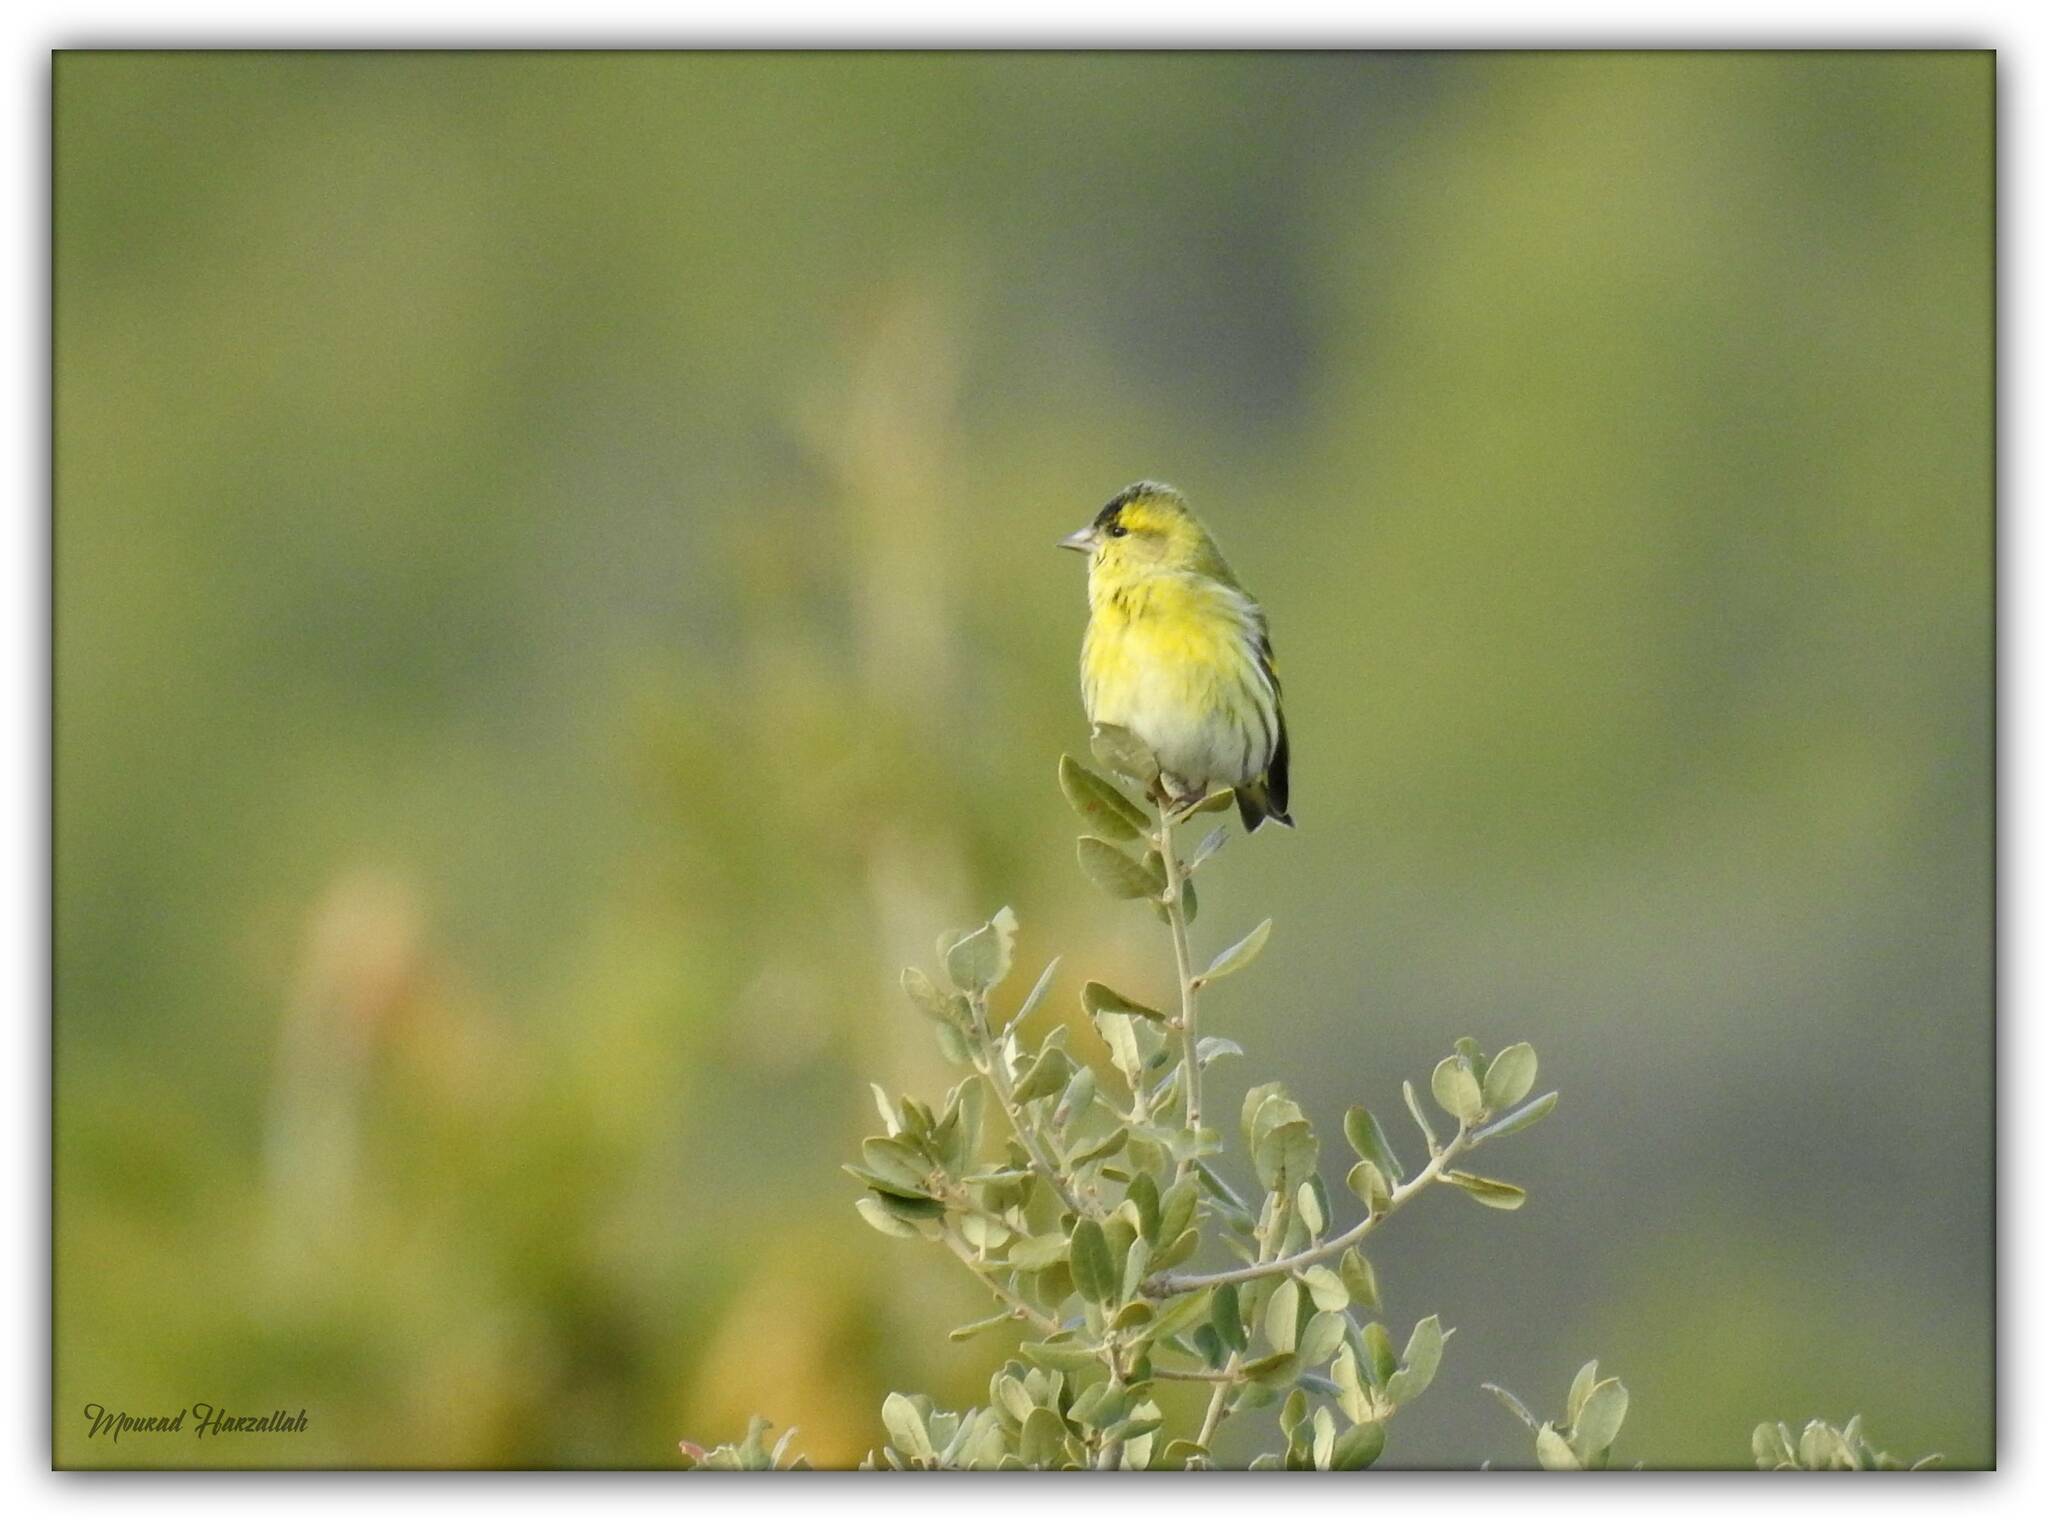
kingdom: Animalia
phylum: Chordata
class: Aves
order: Passeriformes
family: Fringillidae
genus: Spinus
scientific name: Spinus spinus
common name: Eurasian siskin
